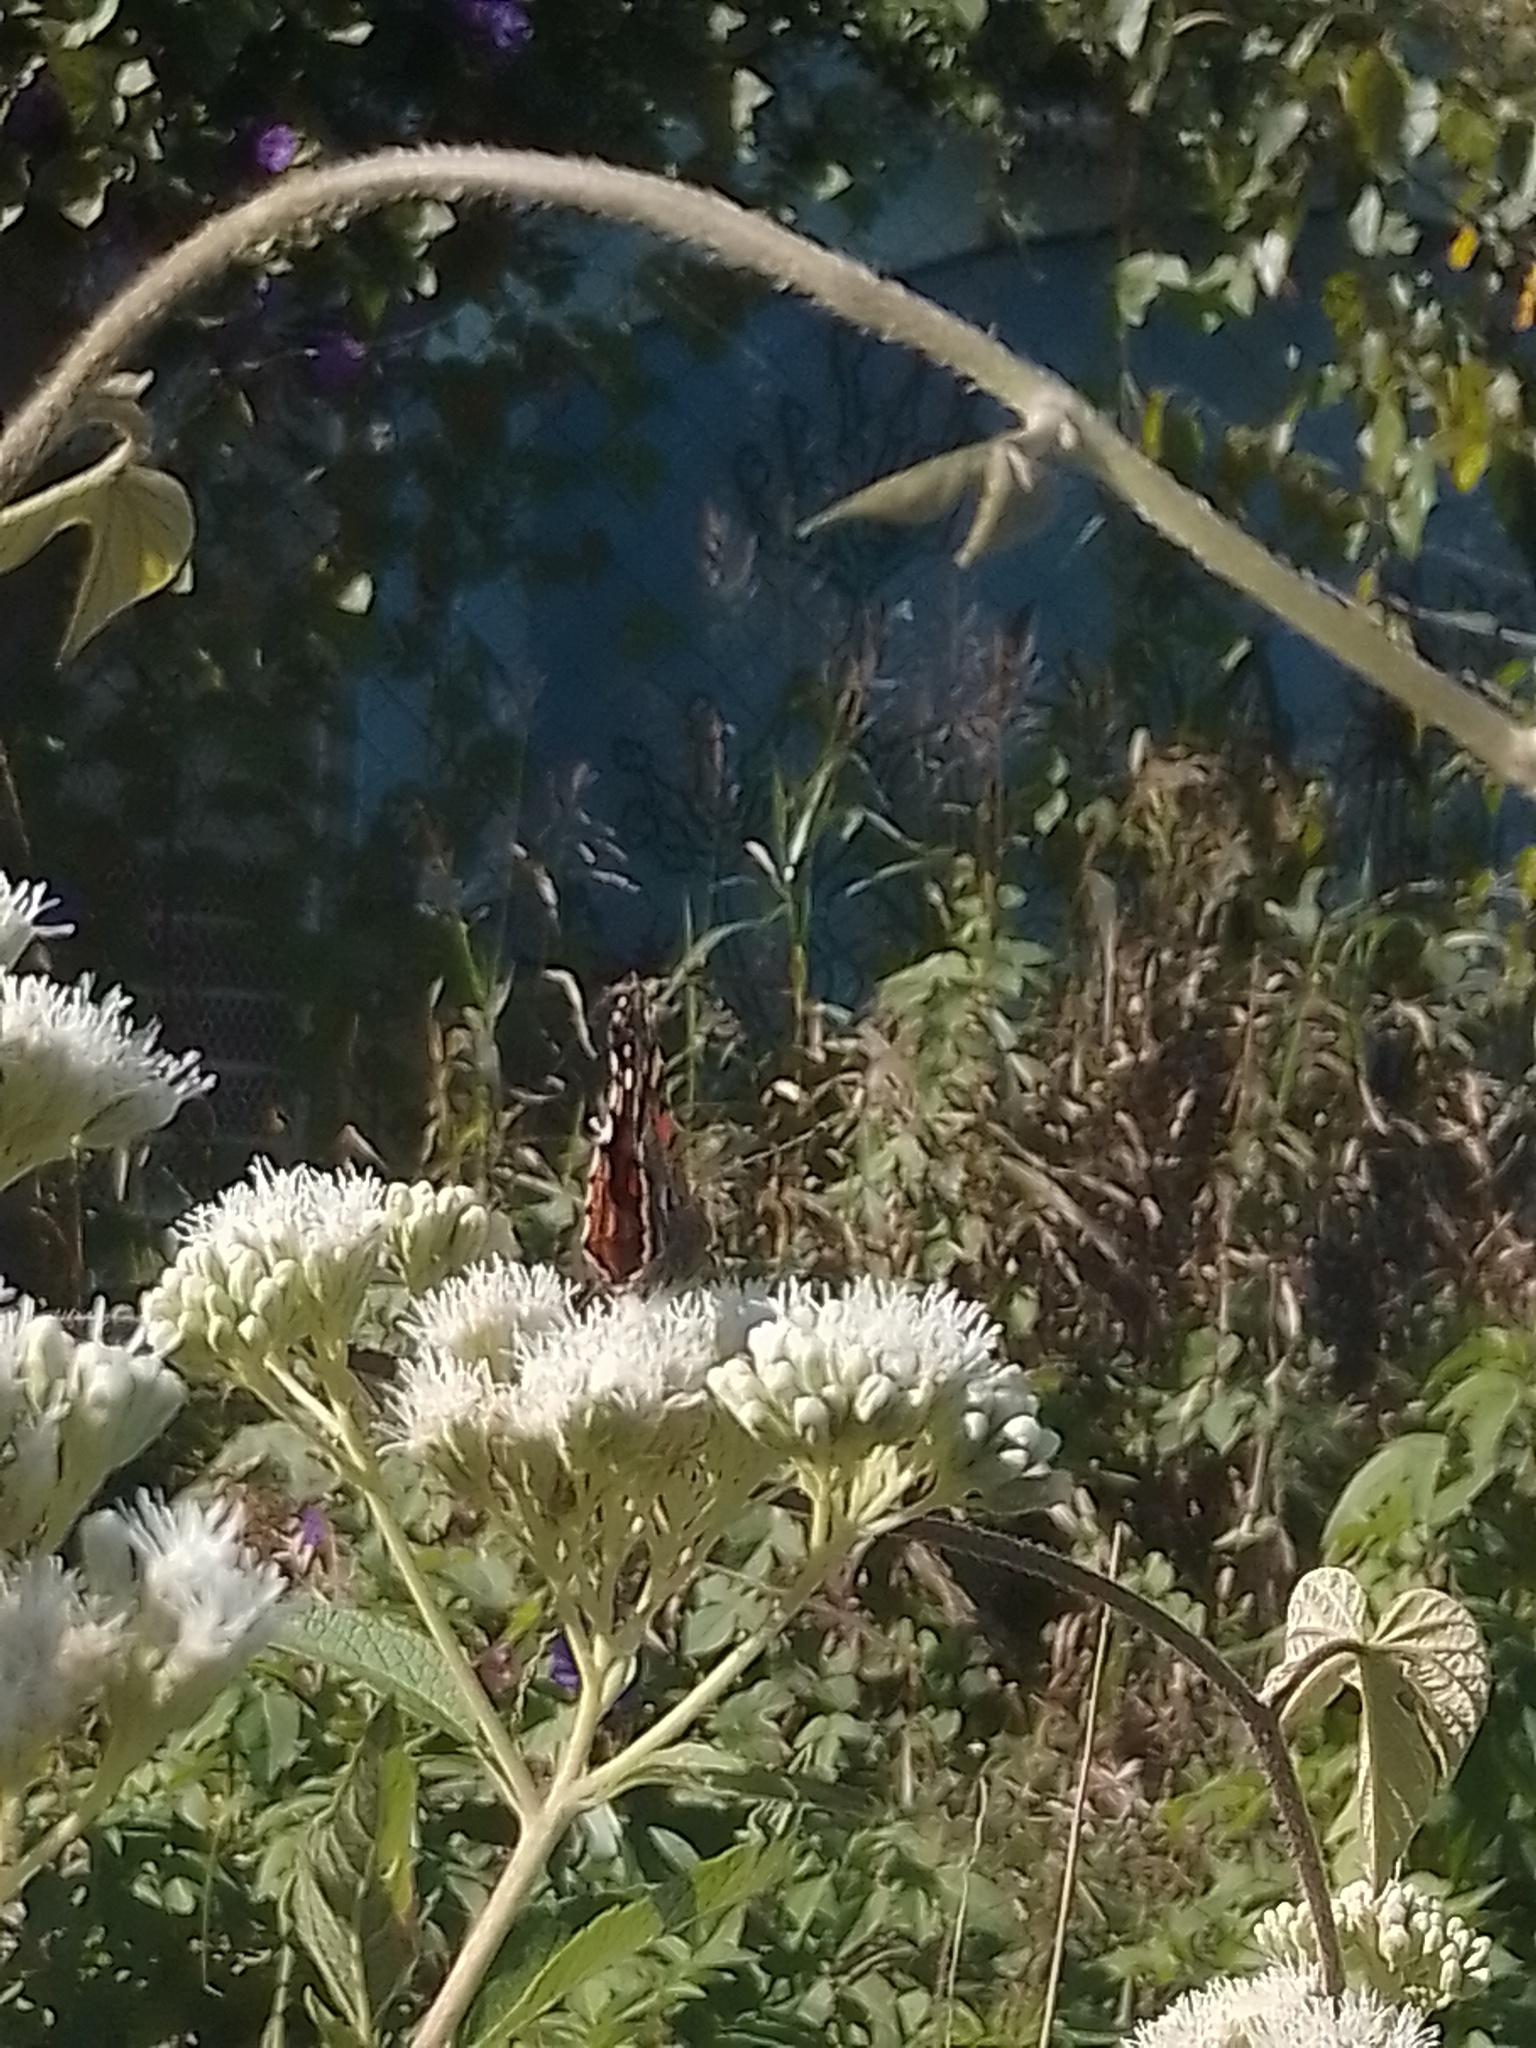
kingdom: Animalia
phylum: Arthropoda
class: Insecta
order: Lepidoptera
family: Nymphalidae
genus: Vanessa
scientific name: Vanessa carye
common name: Subtropical lady
